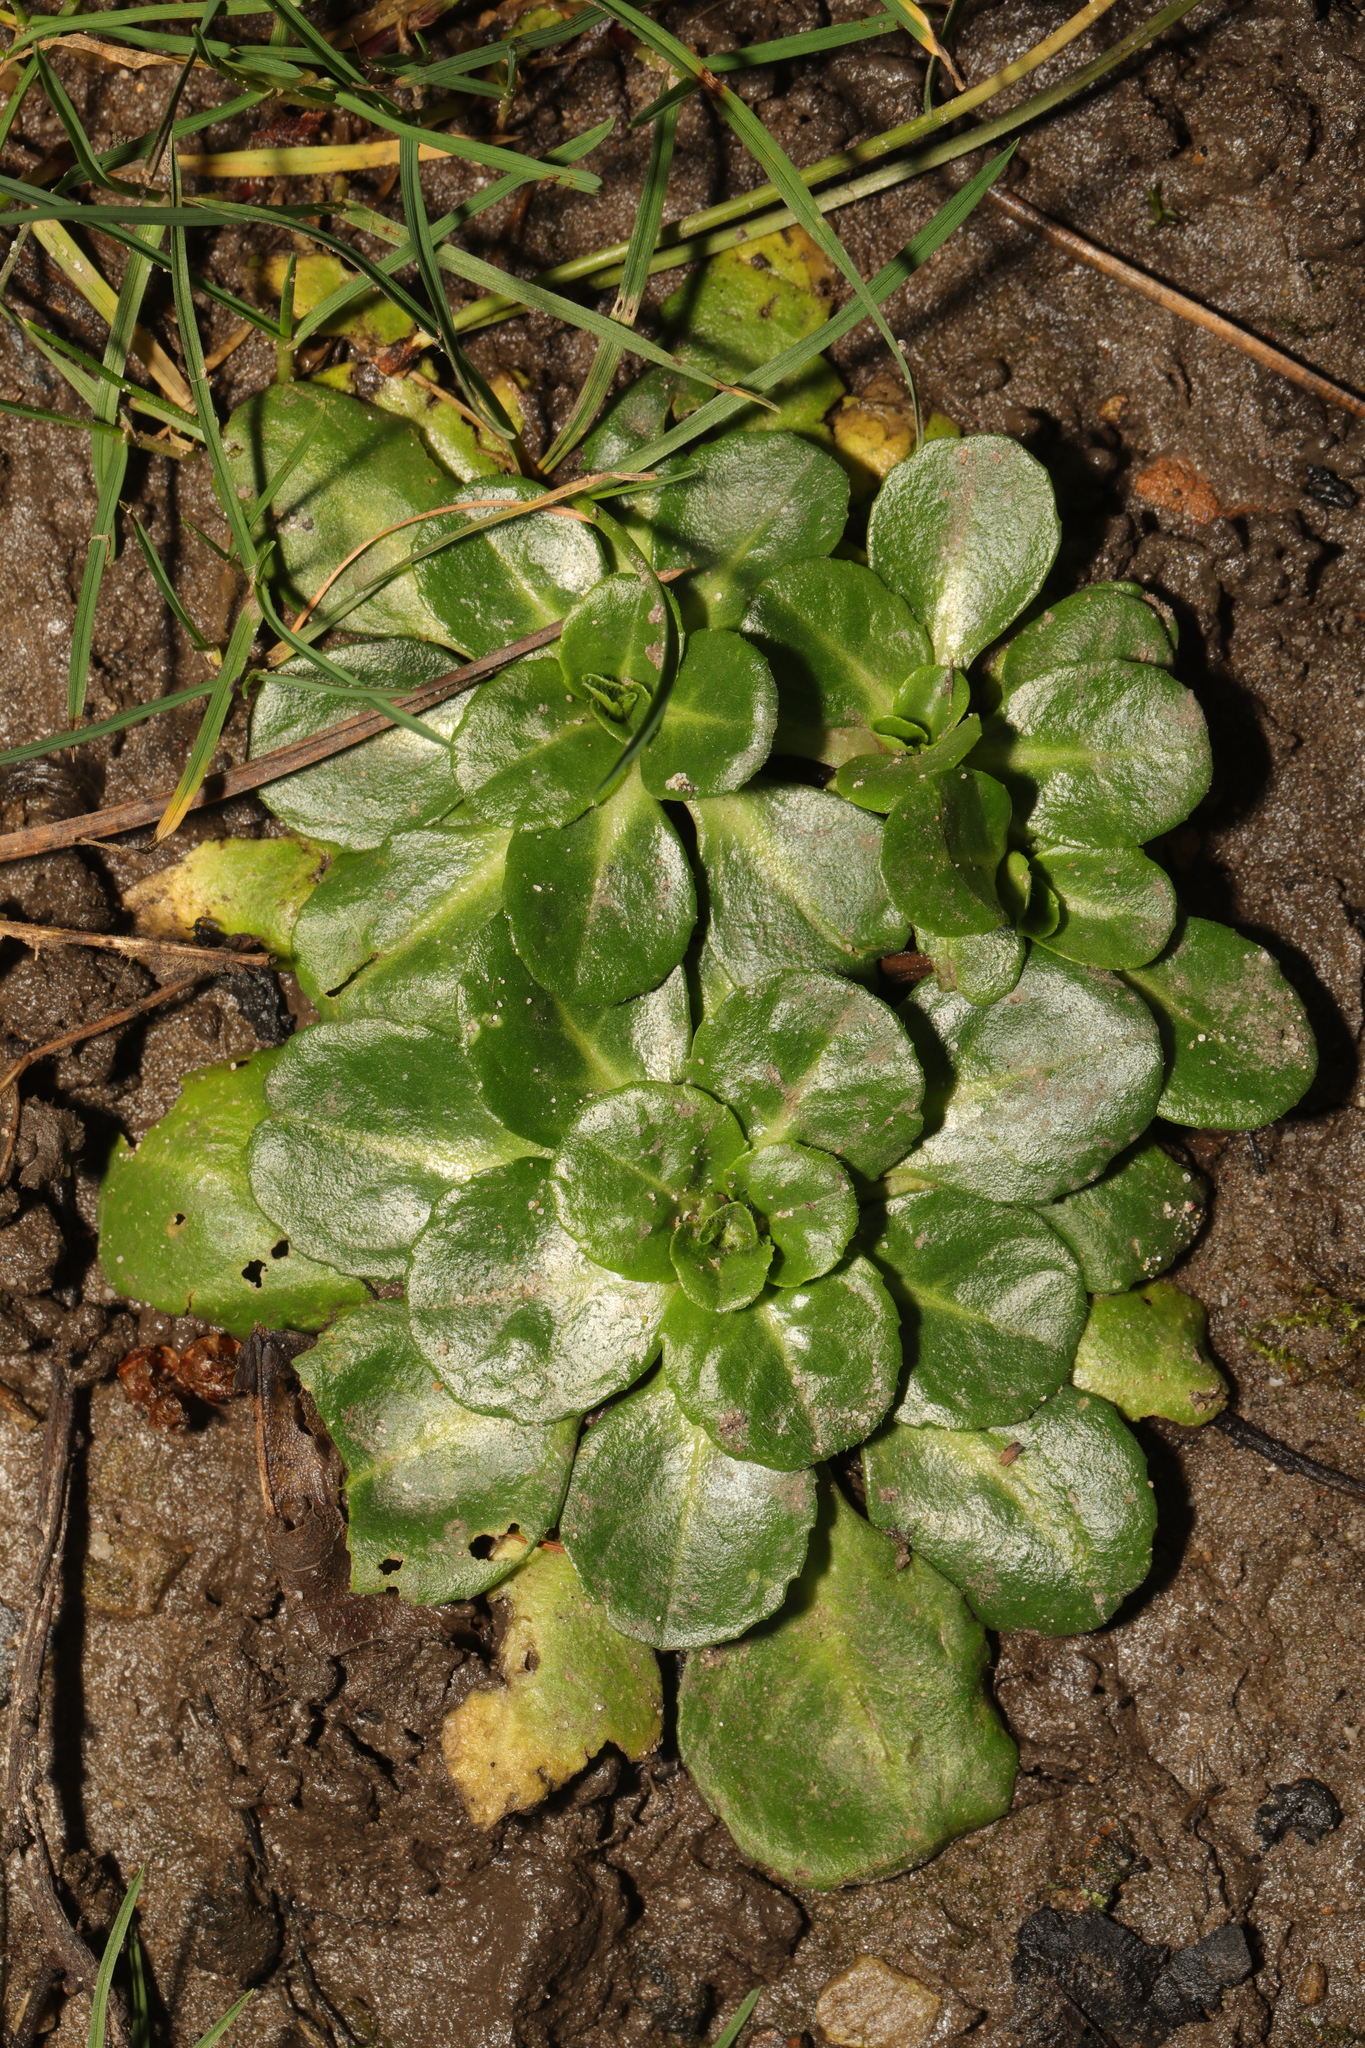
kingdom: Plantae
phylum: Tracheophyta
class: Magnoliopsida
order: Asterales
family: Asteraceae
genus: Bellis
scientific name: Bellis perennis
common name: Lawndaisy
